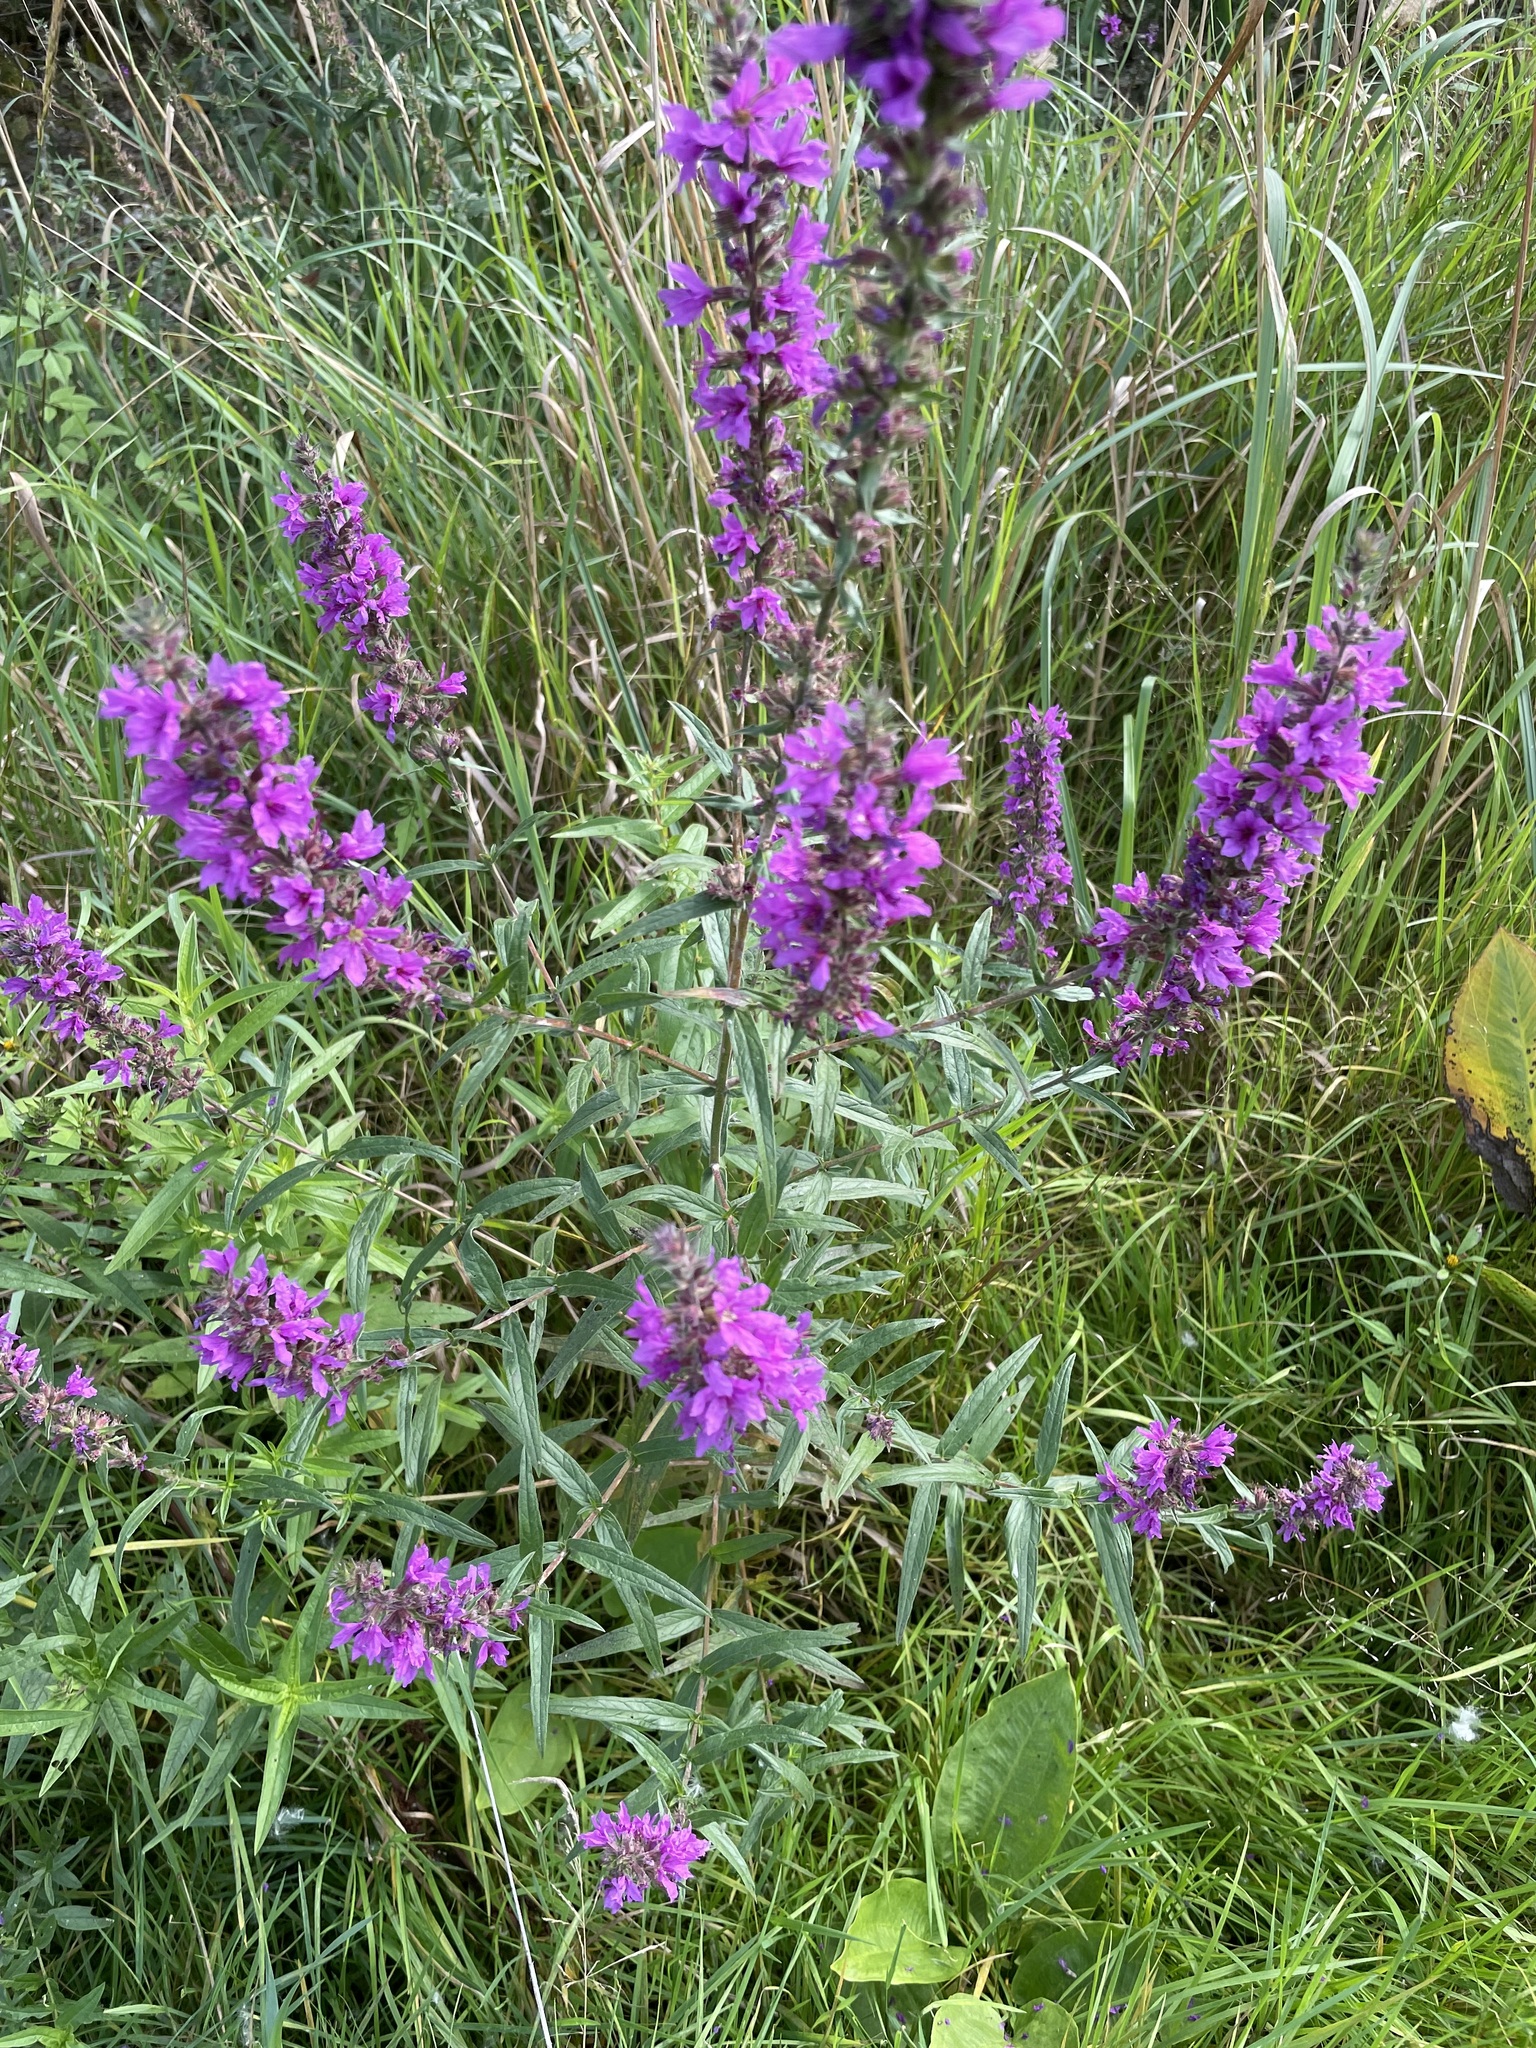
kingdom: Plantae
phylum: Tracheophyta
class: Magnoliopsida
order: Myrtales
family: Lythraceae
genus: Lythrum
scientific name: Lythrum salicaria
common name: Purple loosestrife
